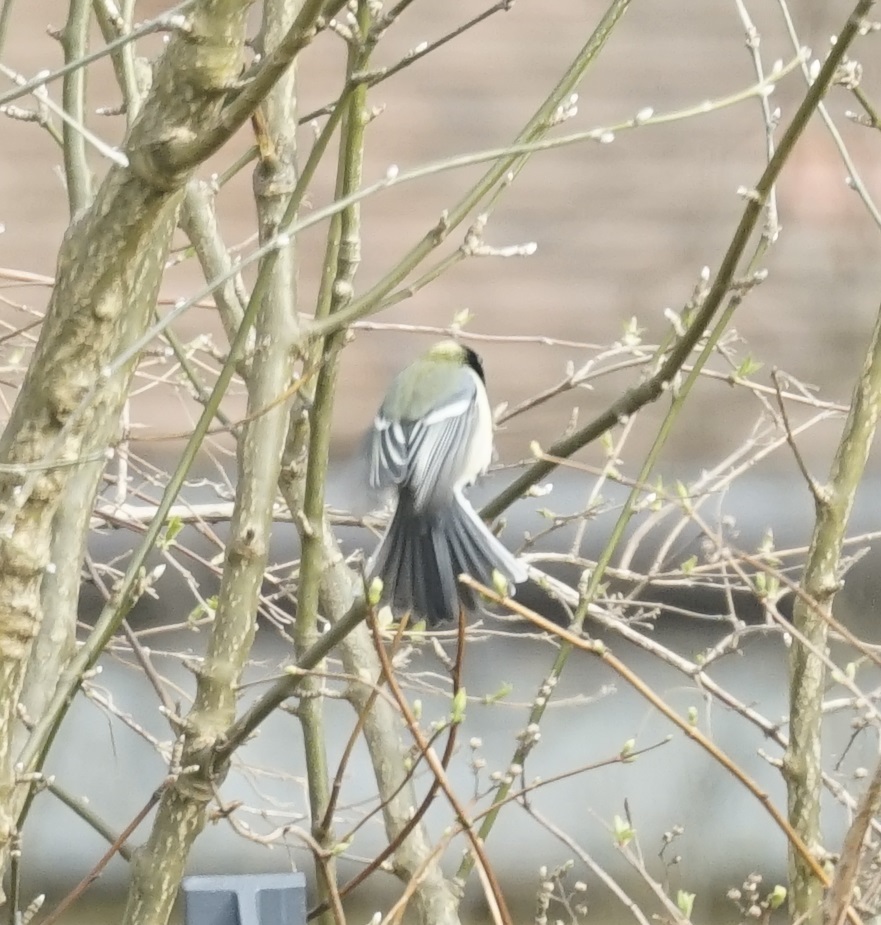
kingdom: Animalia
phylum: Chordata
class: Aves
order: Passeriformes
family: Paridae
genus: Parus
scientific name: Parus major
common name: Great tit
